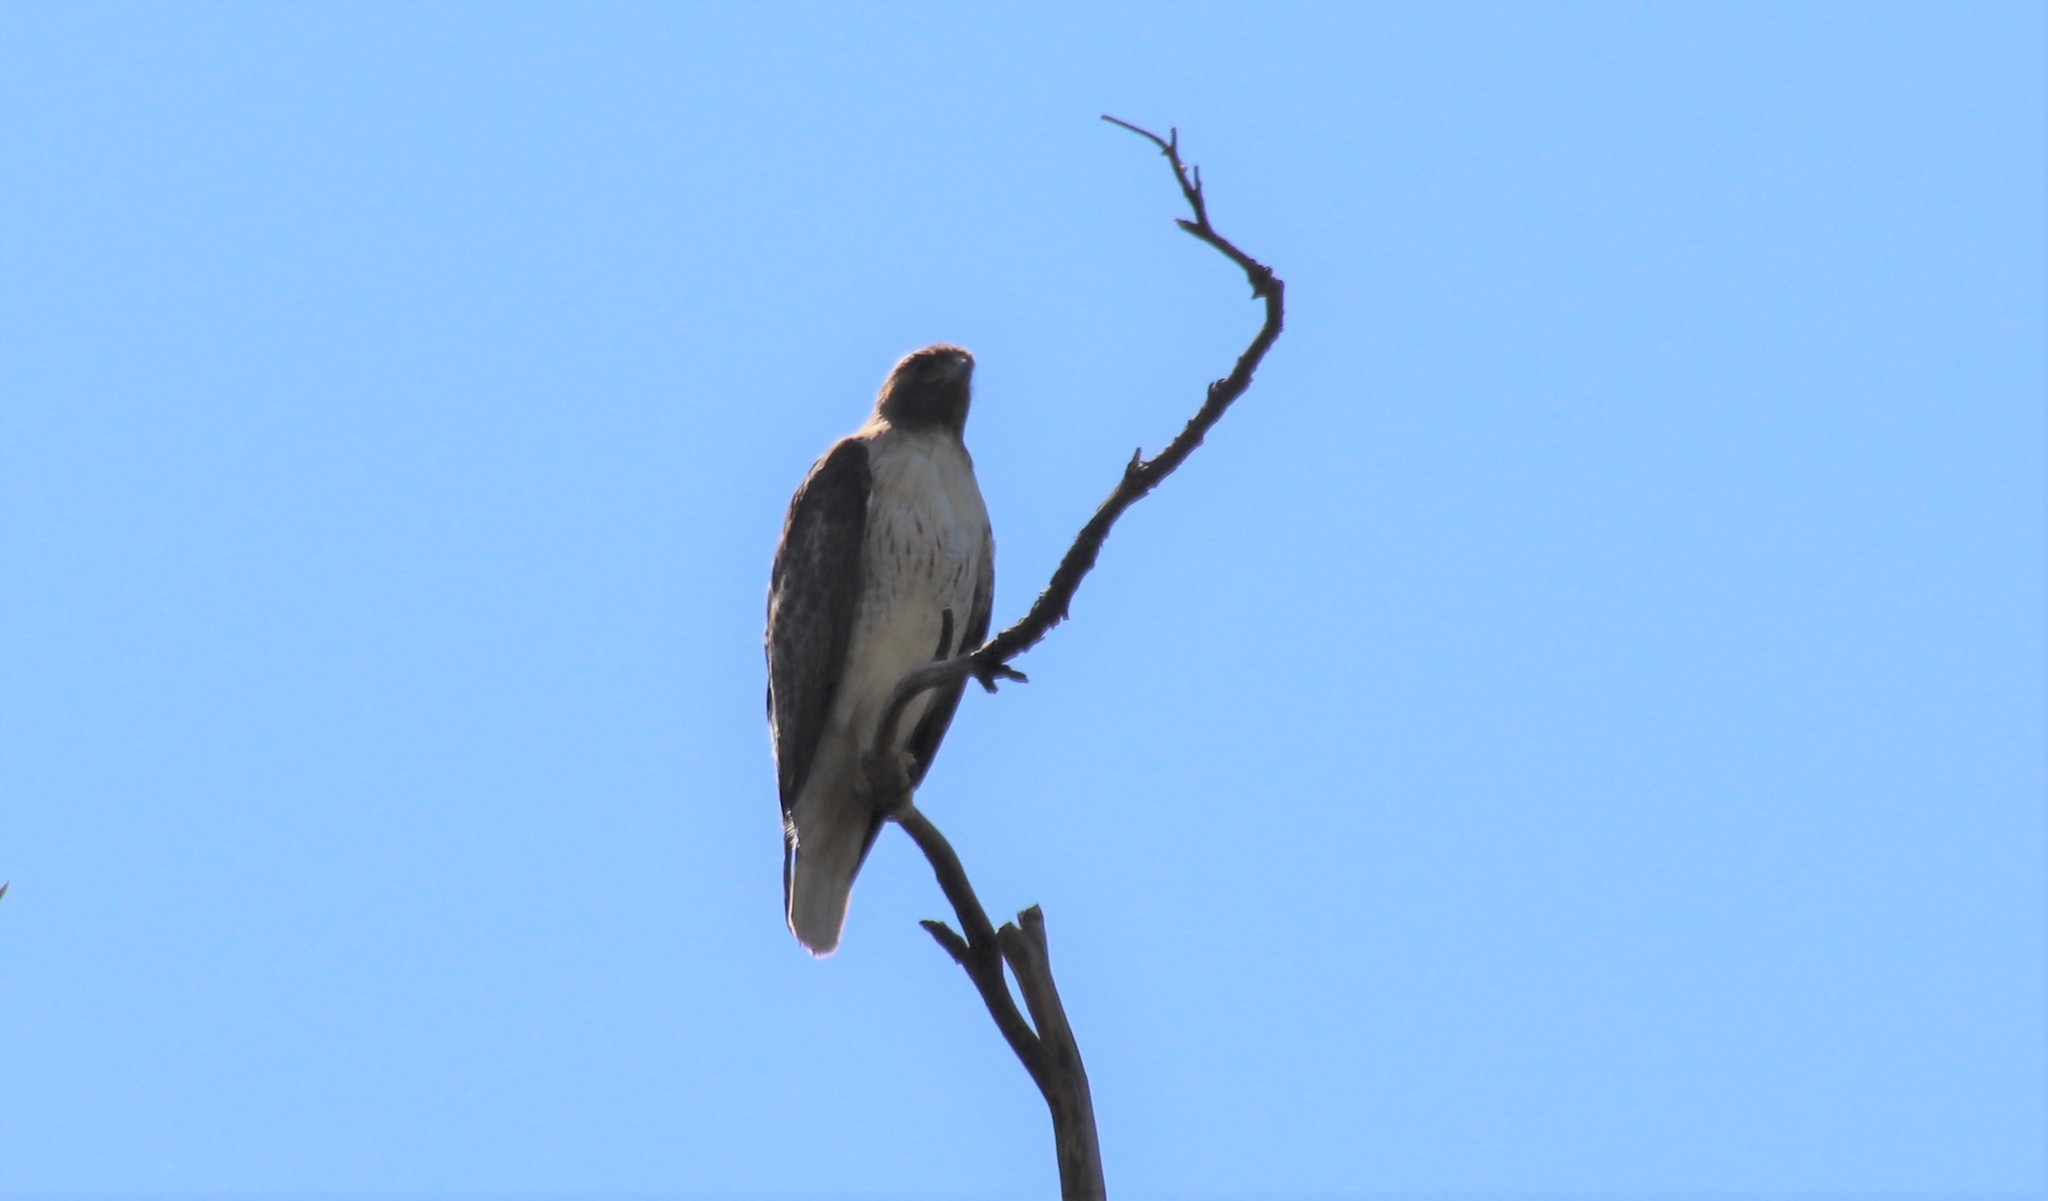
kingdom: Animalia
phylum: Chordata
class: Aves
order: Accipitriformes
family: Accipitridae
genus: Buteo
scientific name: Buteo jamaicensis
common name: Red-tailed hawk
